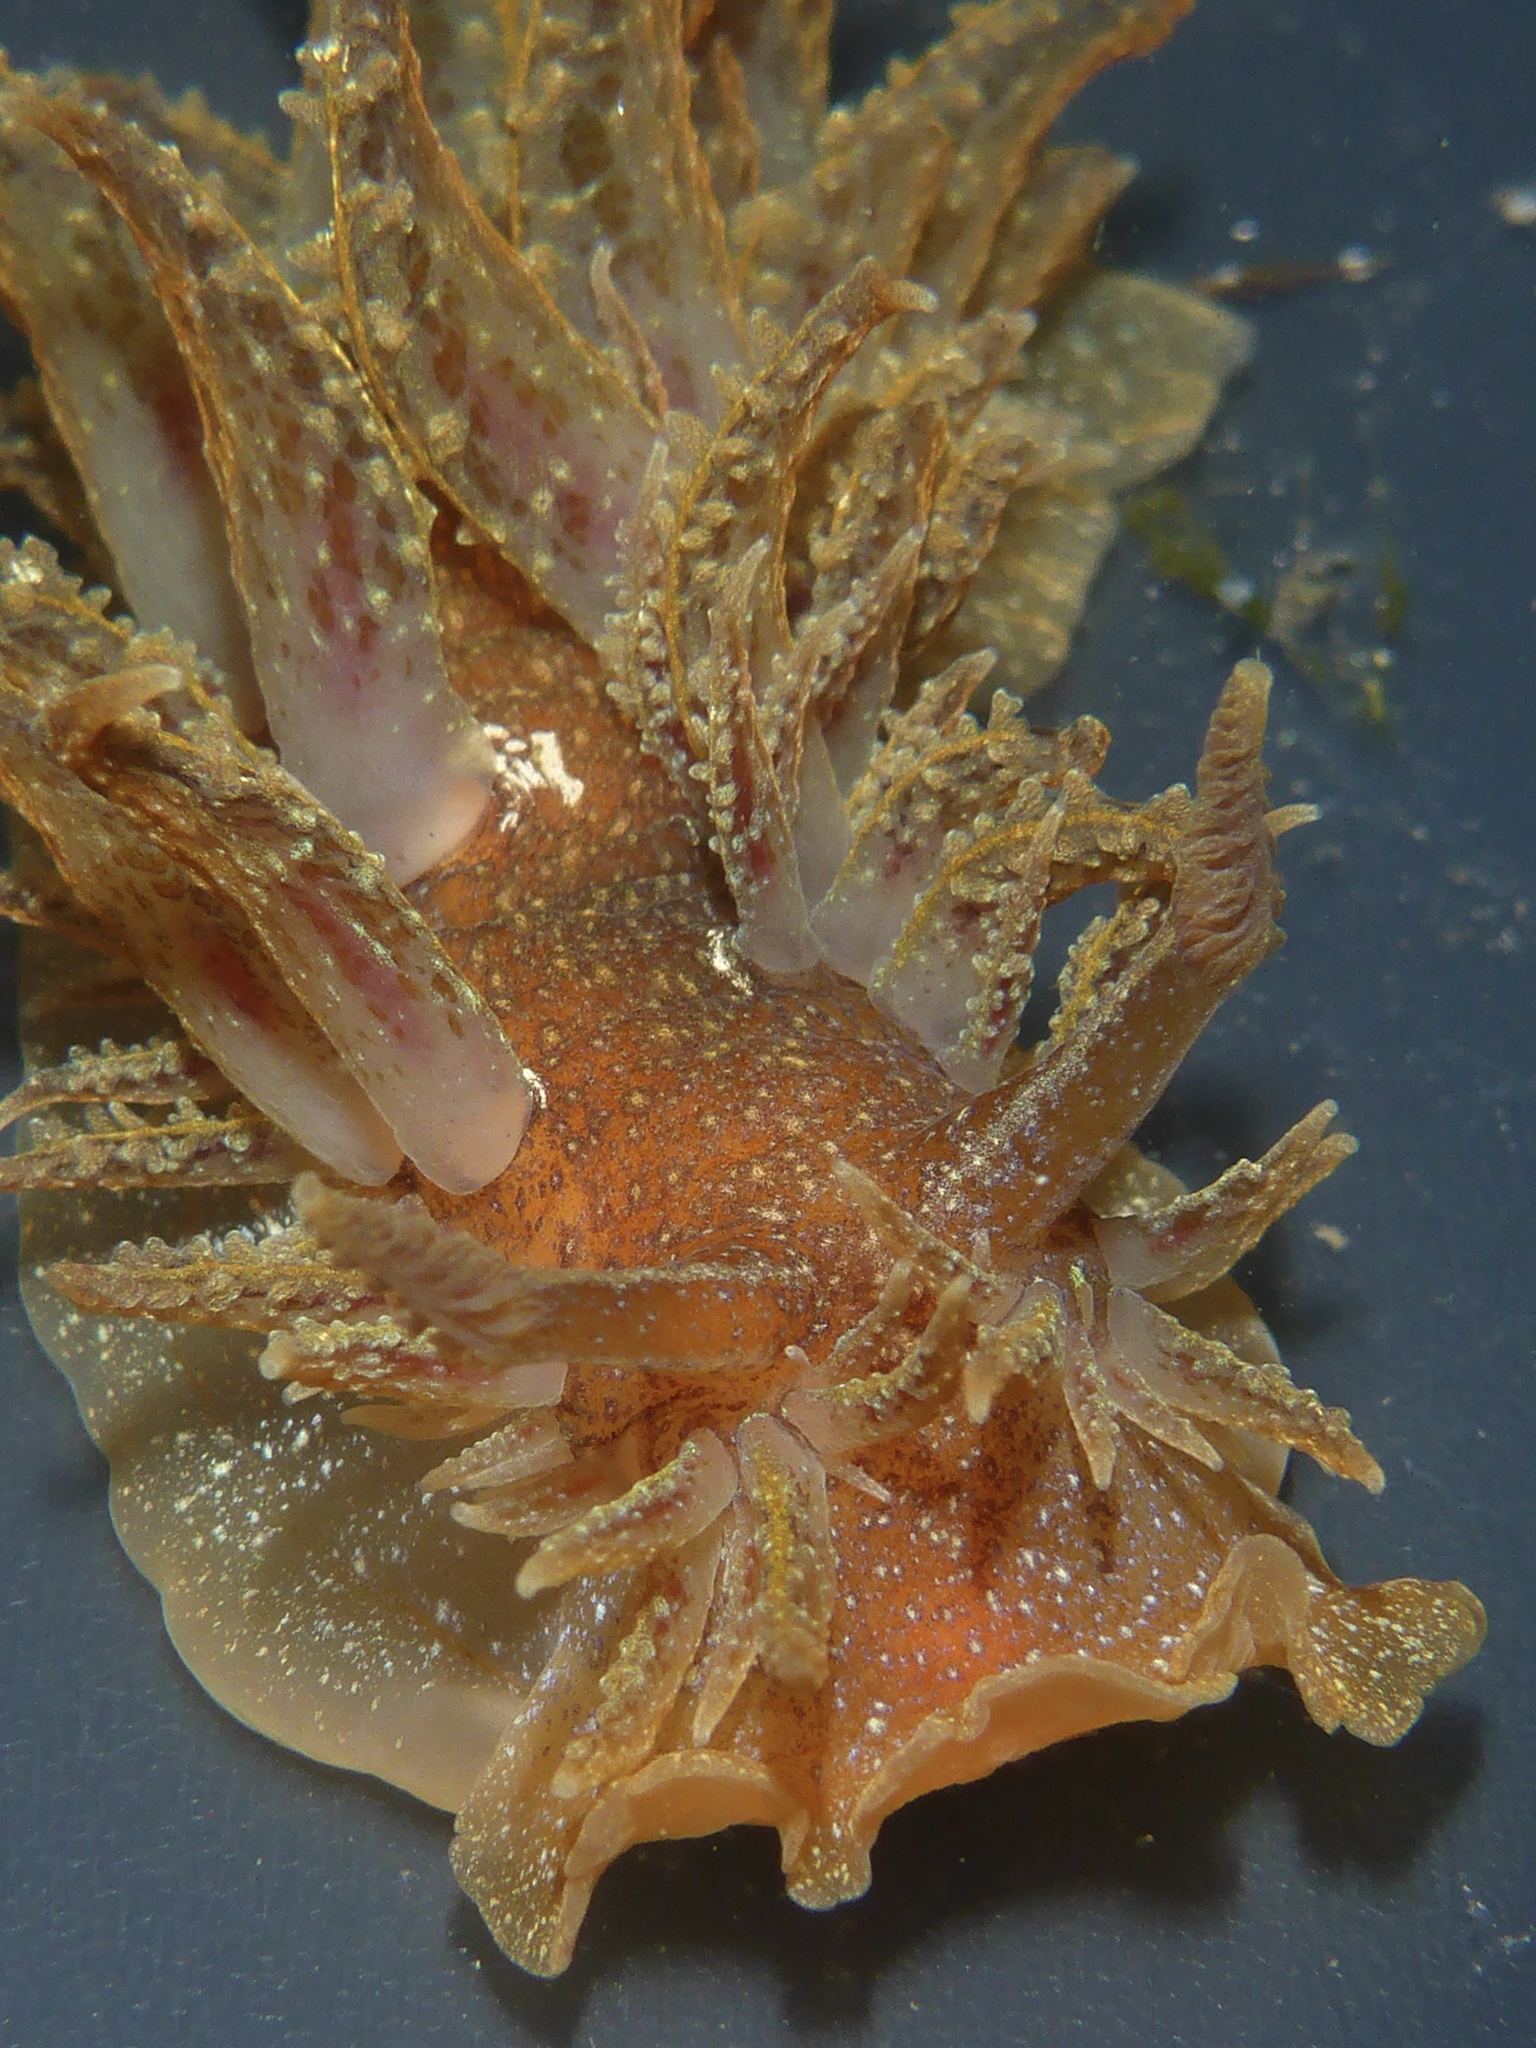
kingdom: Animalia
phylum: Mollusca
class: Gastropoda
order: Nudibranchia
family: Dironidae
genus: Dirona
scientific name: Dirona picta
